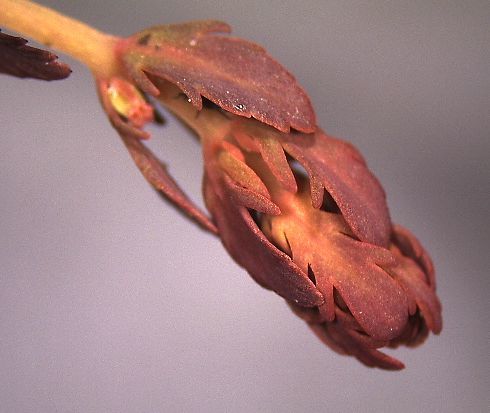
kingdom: Plantae
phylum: Tracheophyta
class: Magnoliopsida
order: Saxifragales
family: Haloragaceae
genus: Myriophyllum
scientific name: Myriophyllum triphyllum
